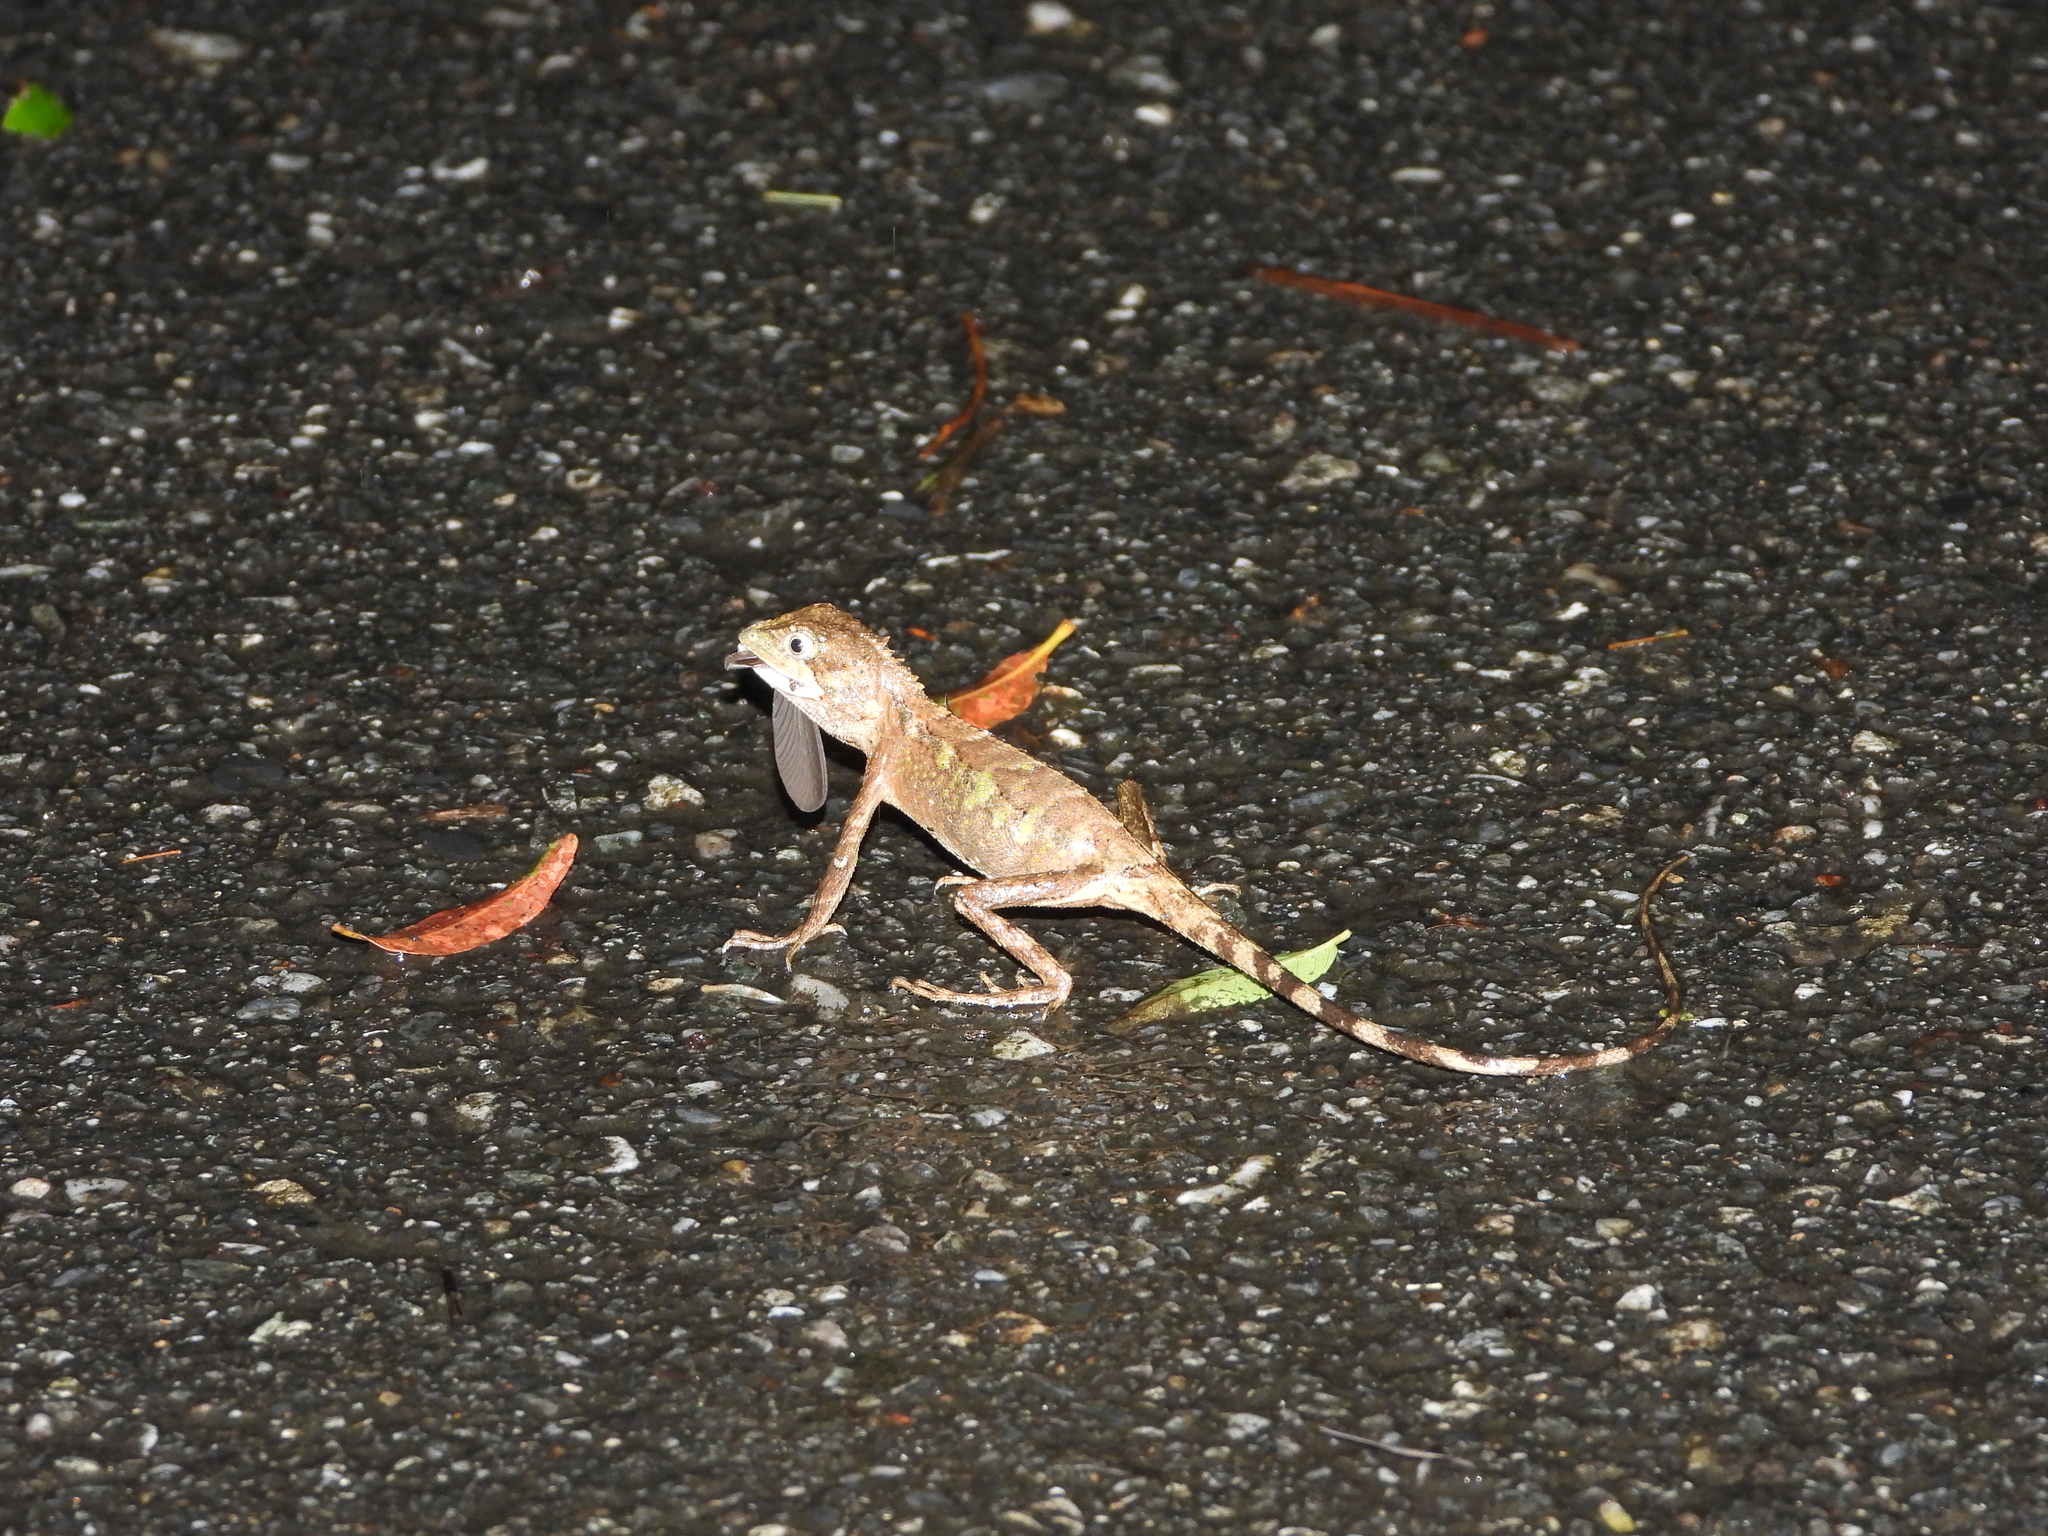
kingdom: Animalia
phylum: Chordata
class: Squamata
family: Agamidae
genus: Diploderma
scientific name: Diploderma swinhonis
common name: Taiwan japalure
